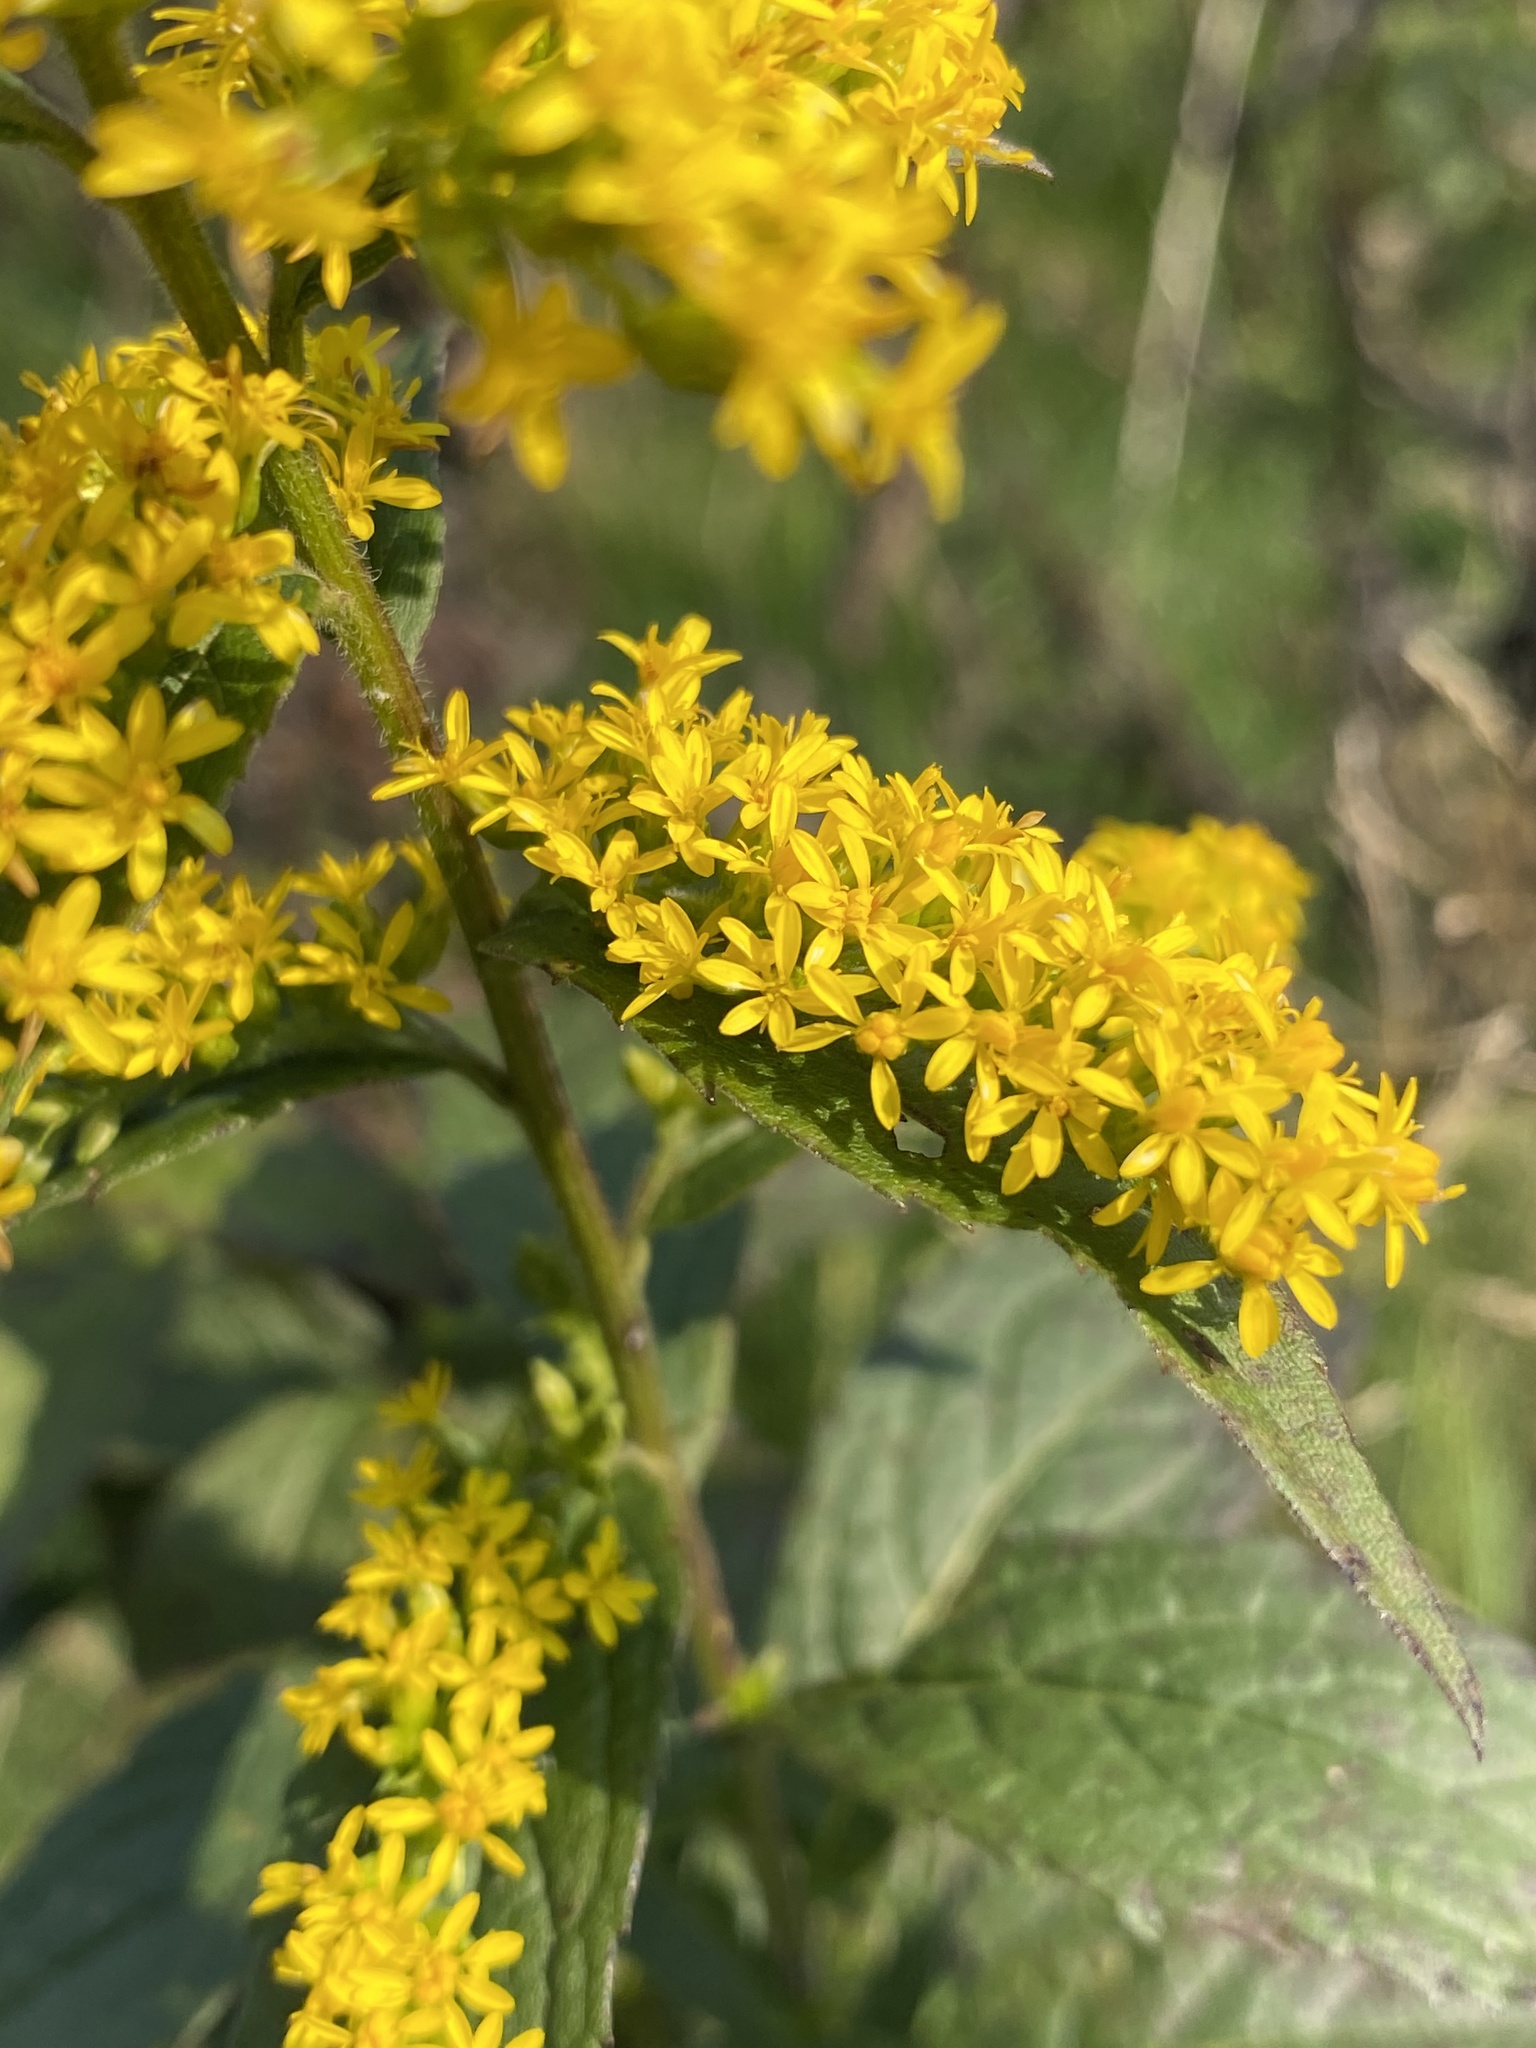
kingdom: Plantae
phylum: Tracheophyta
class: Magnoliopsida
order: Asterales
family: Asteraceae
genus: Solidago
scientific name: Solidago rugosa
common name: Rough-stemmed goldenrod
